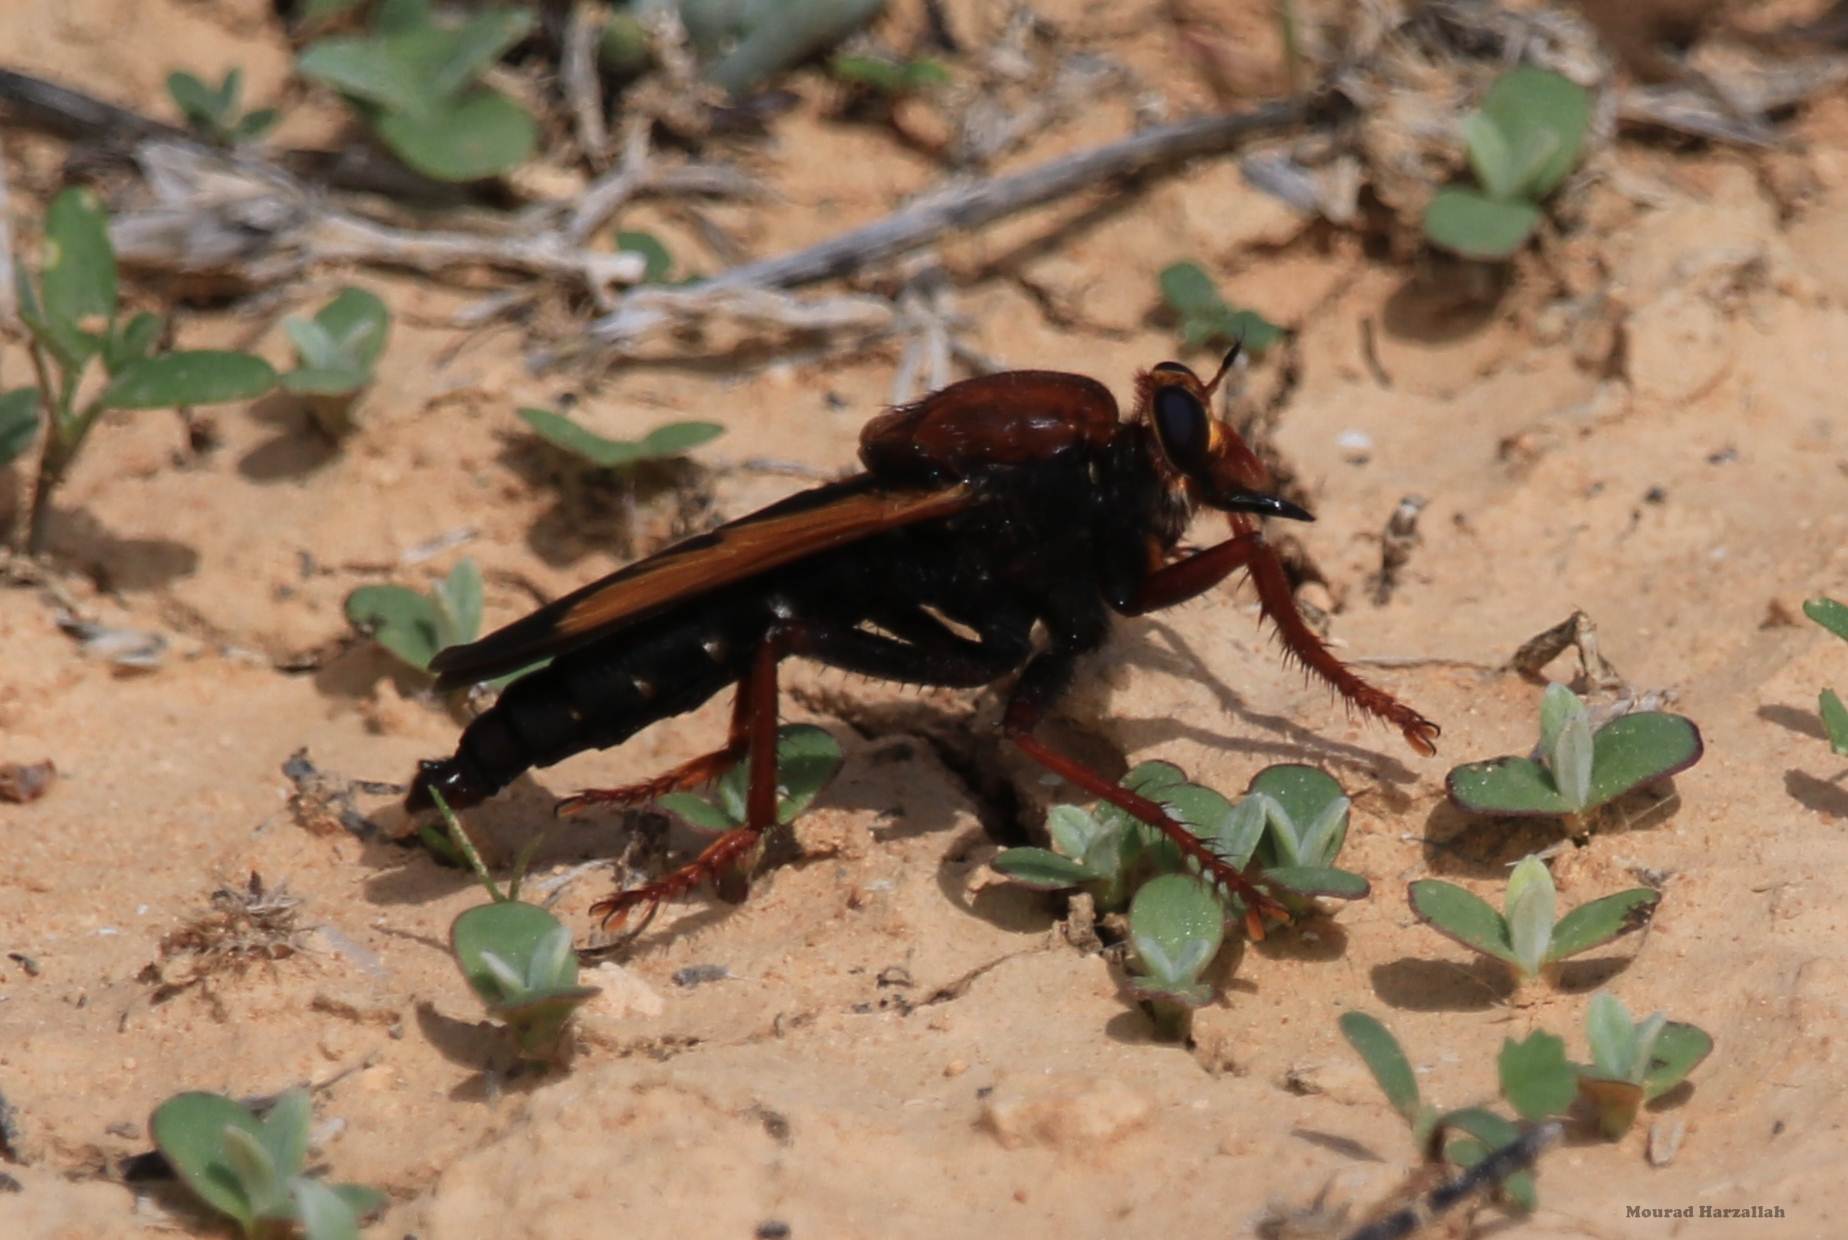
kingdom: Animalia
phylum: Arthropoda
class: Insecta
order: Diptera
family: Asilidae
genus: Asilus
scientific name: Asilus barbarus
